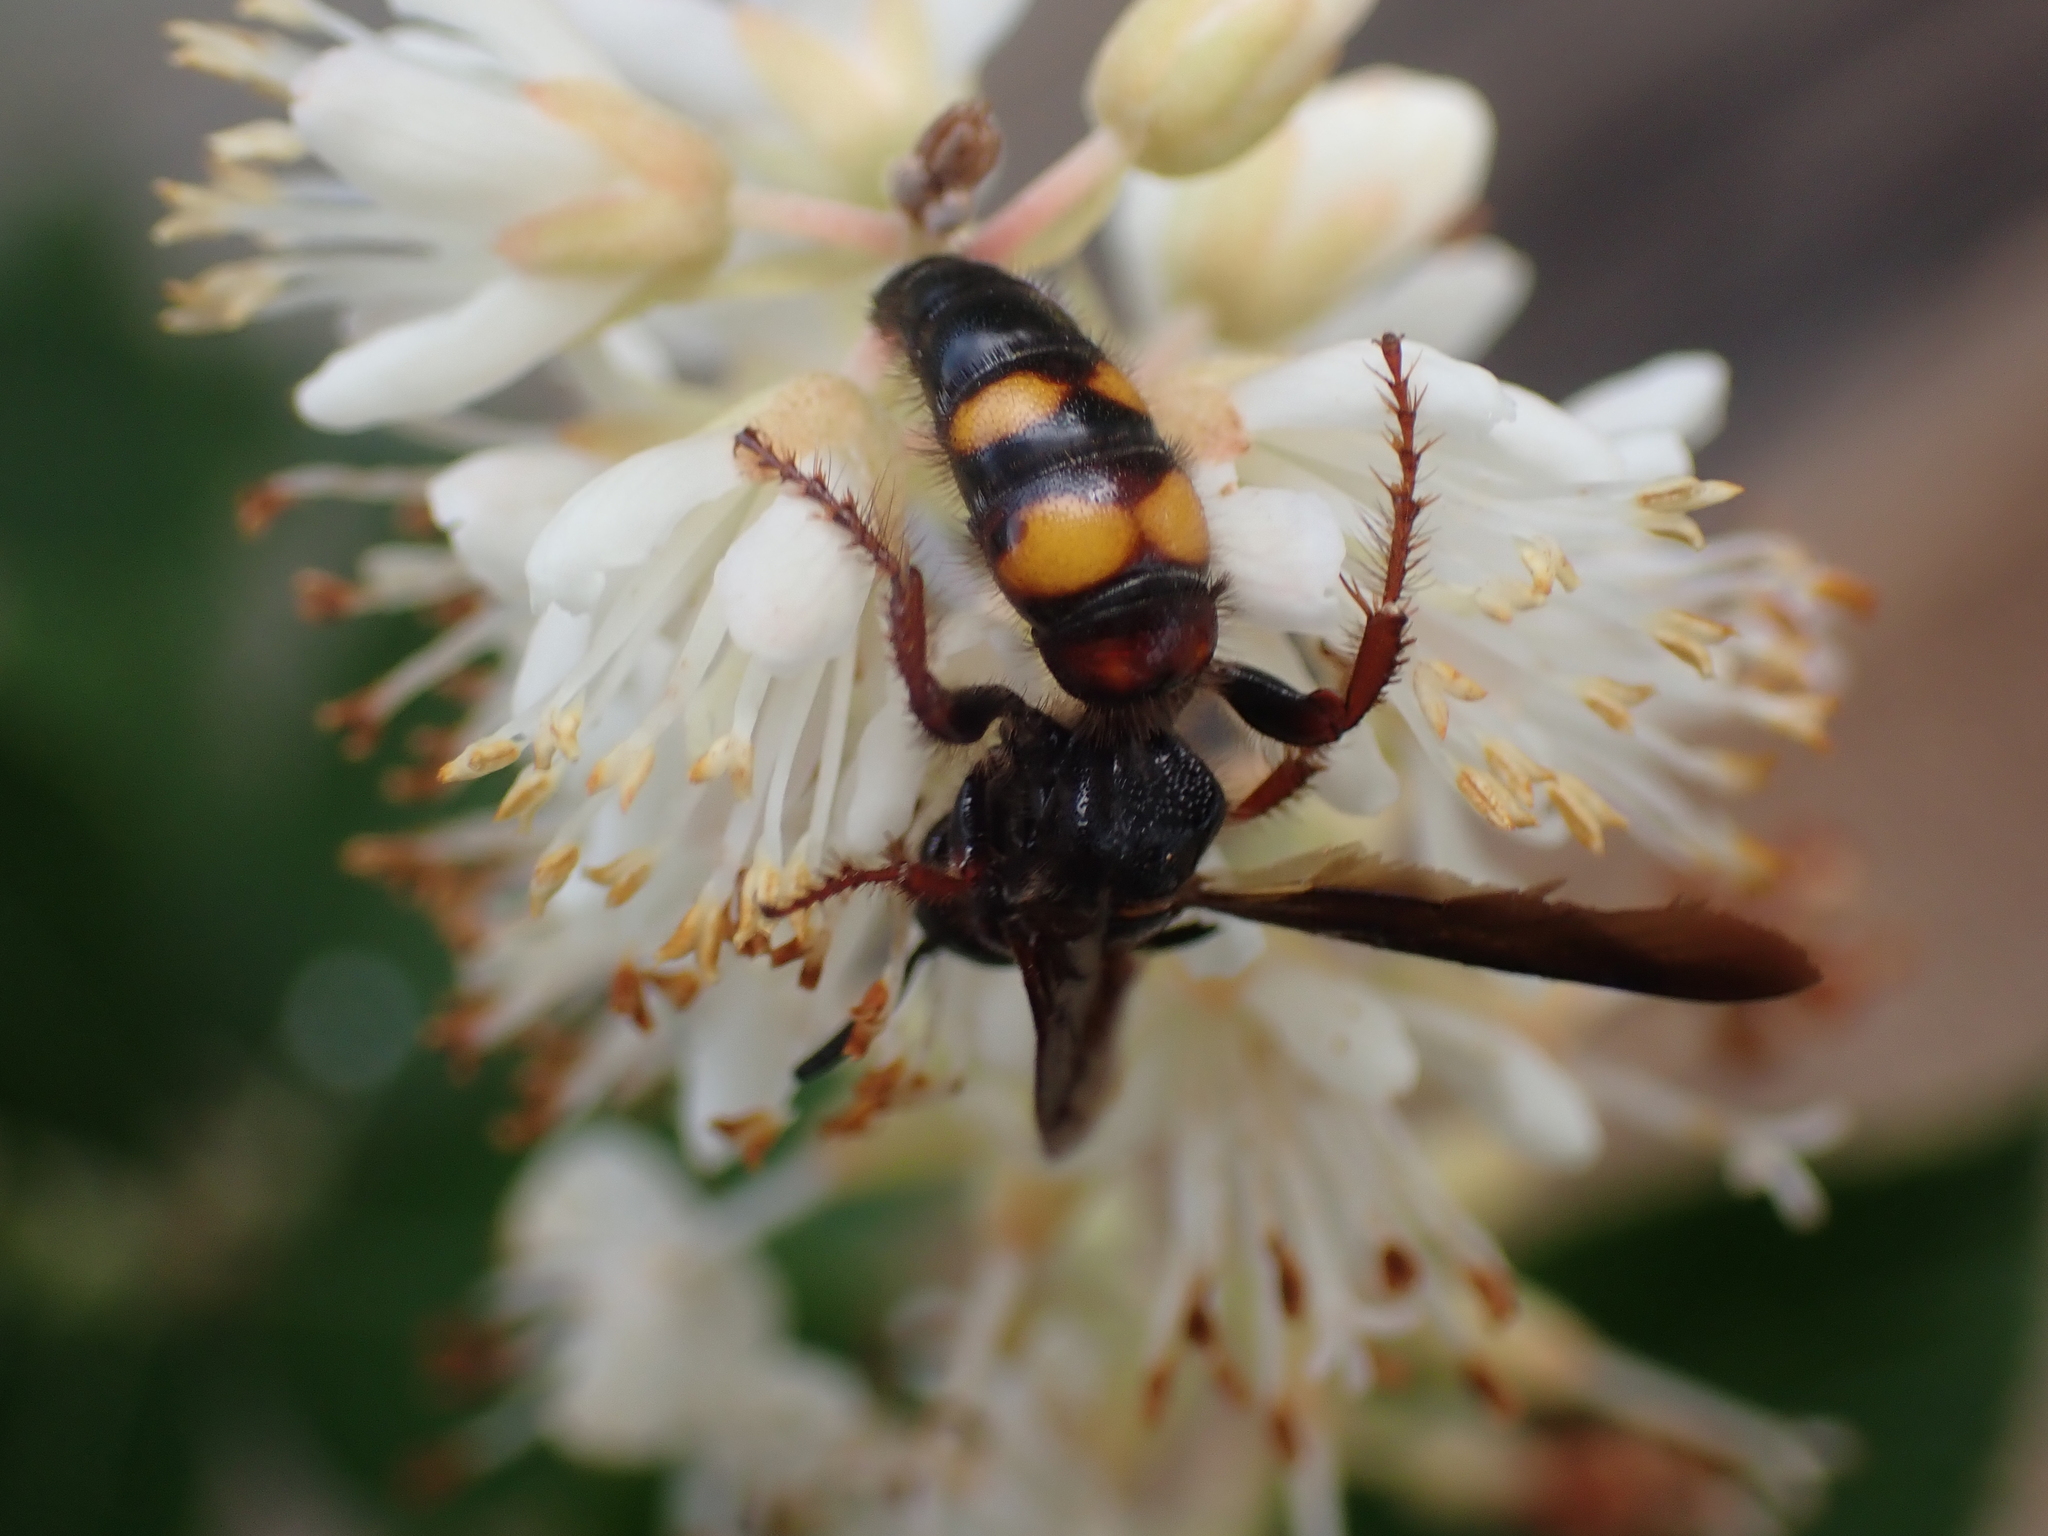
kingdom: Animalia
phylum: Arthropoda
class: Insecta
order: Hymenoptera
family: Scoliidae
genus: Scolia
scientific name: Scolia nobilitata
